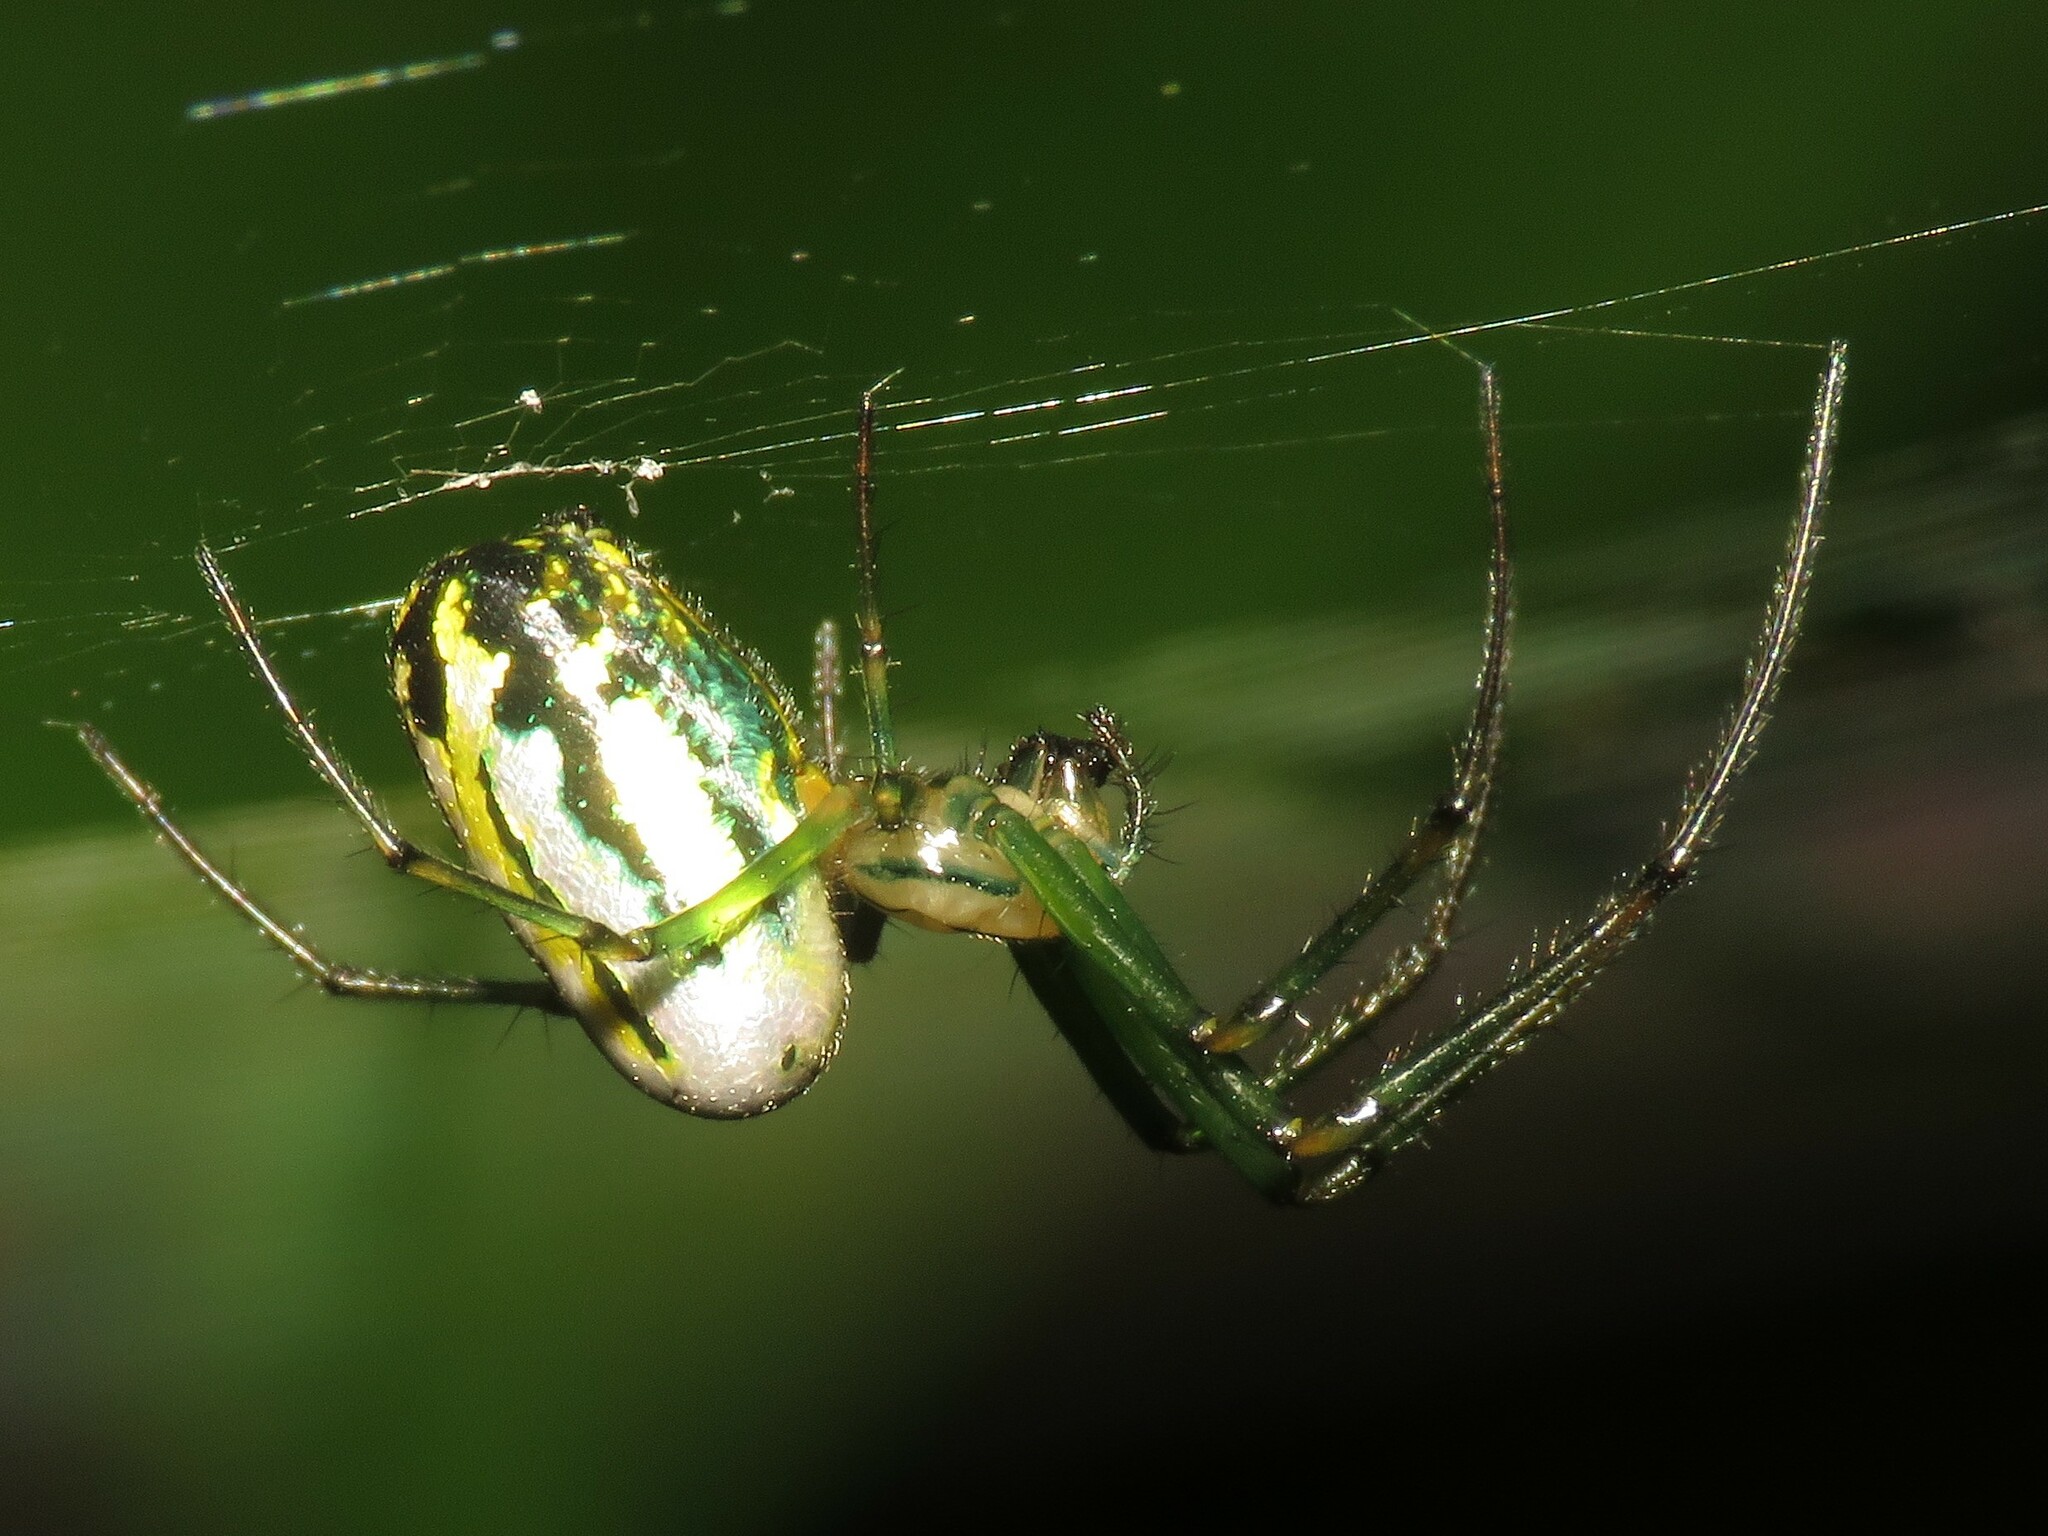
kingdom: Animalia
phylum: Arthropoda
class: Arachnida
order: Araneae
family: Tetragnathidae
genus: Leucauge
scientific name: Leucauge venusta
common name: Longjawed orb weavers
